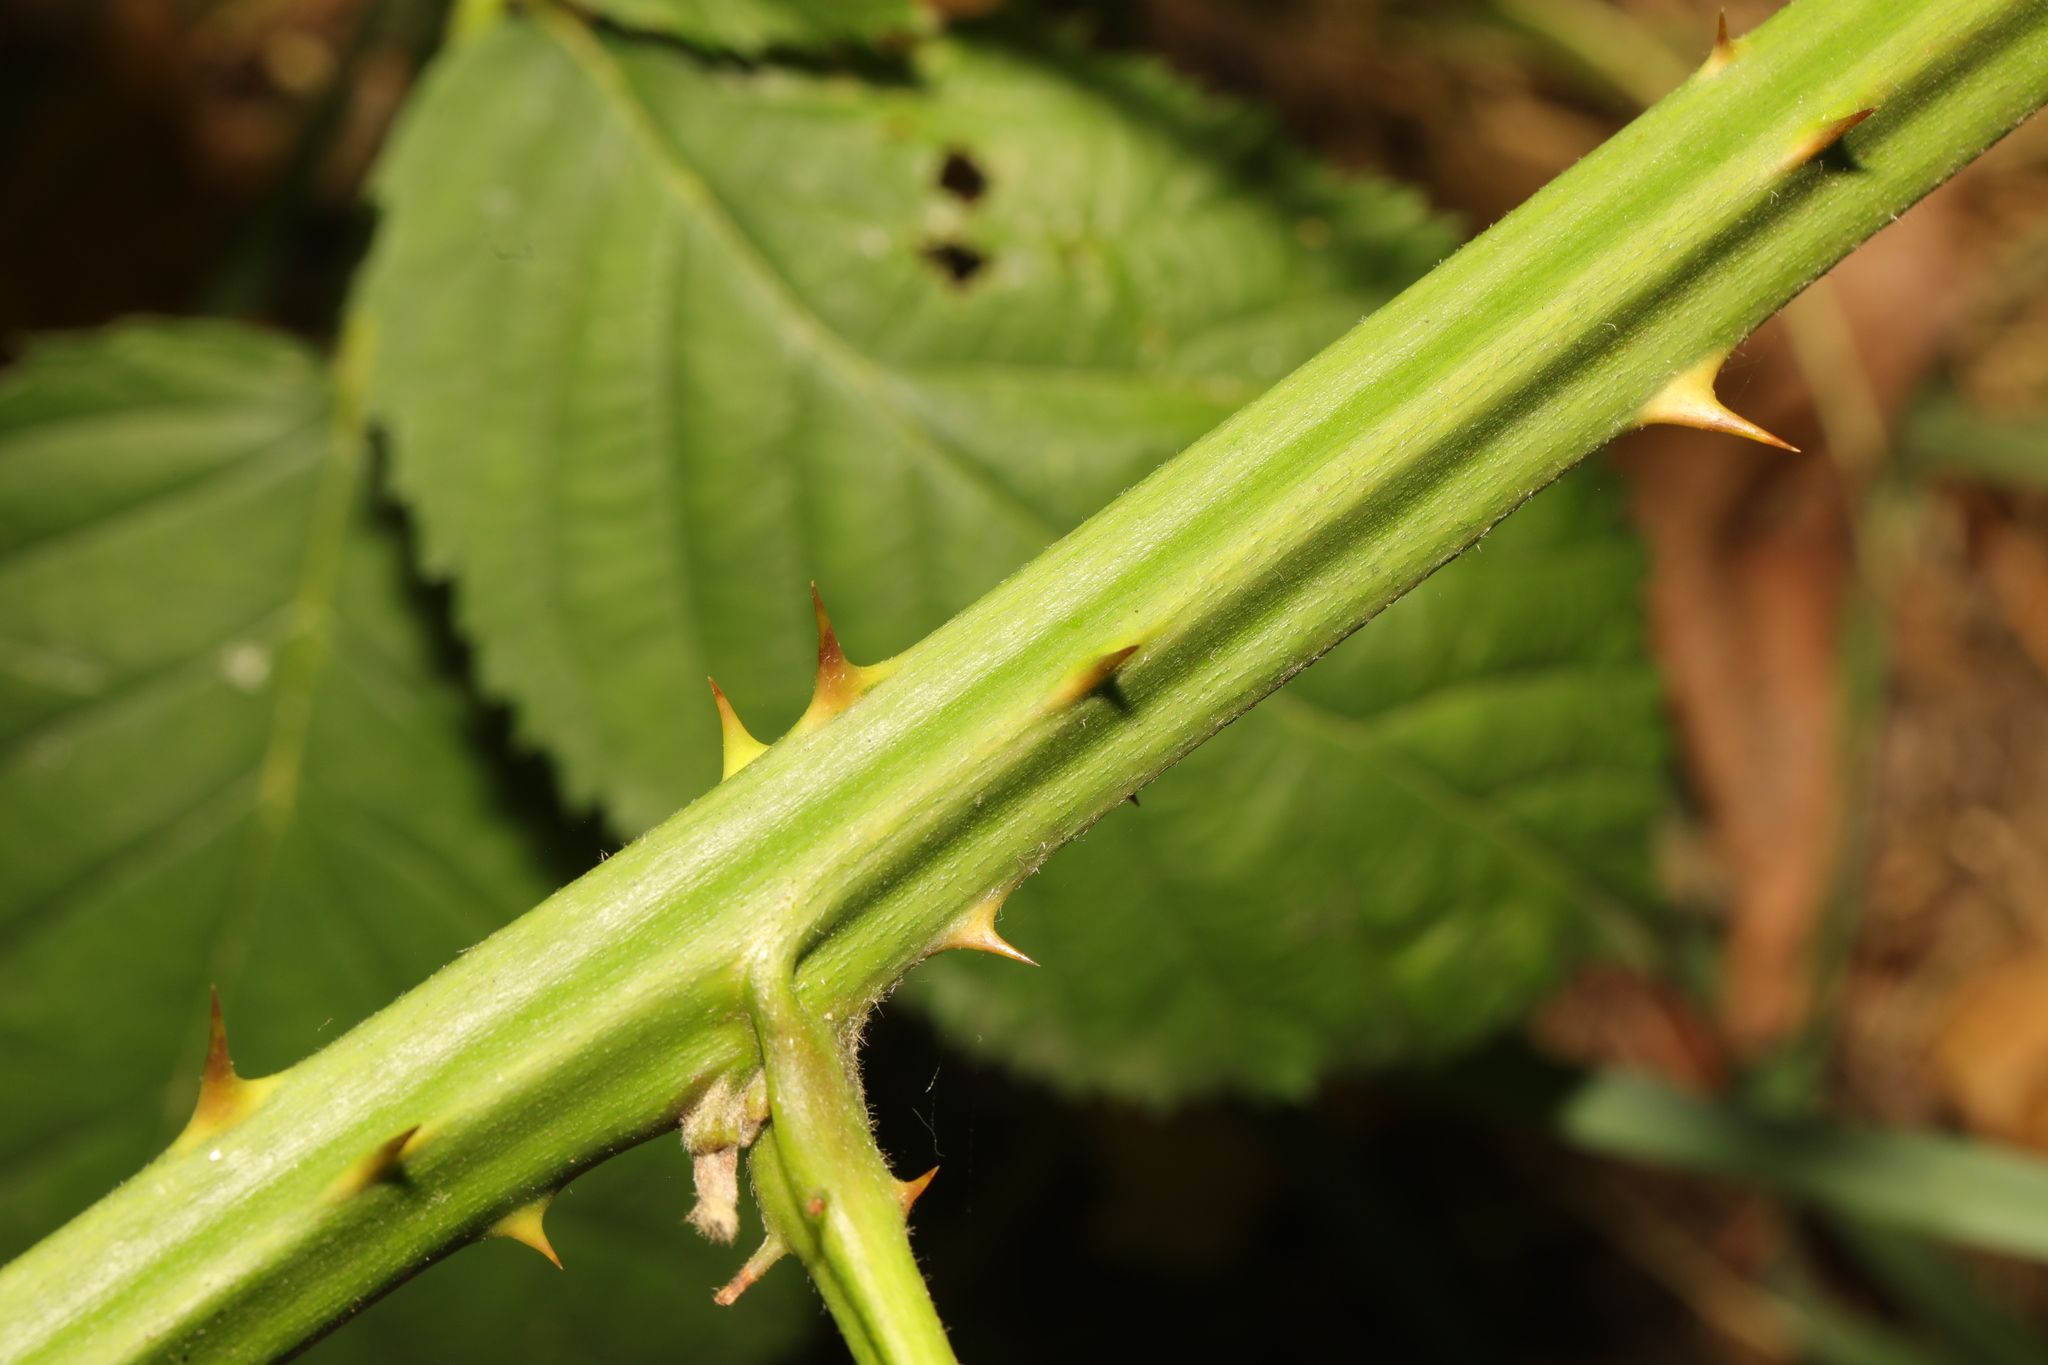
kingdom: Plantae
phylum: Tracheophyta
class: Magnoliopsida
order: Rosales
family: Rosaceae
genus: Rubus
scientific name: Rubus armeniacus
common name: Himalayan blackberry
